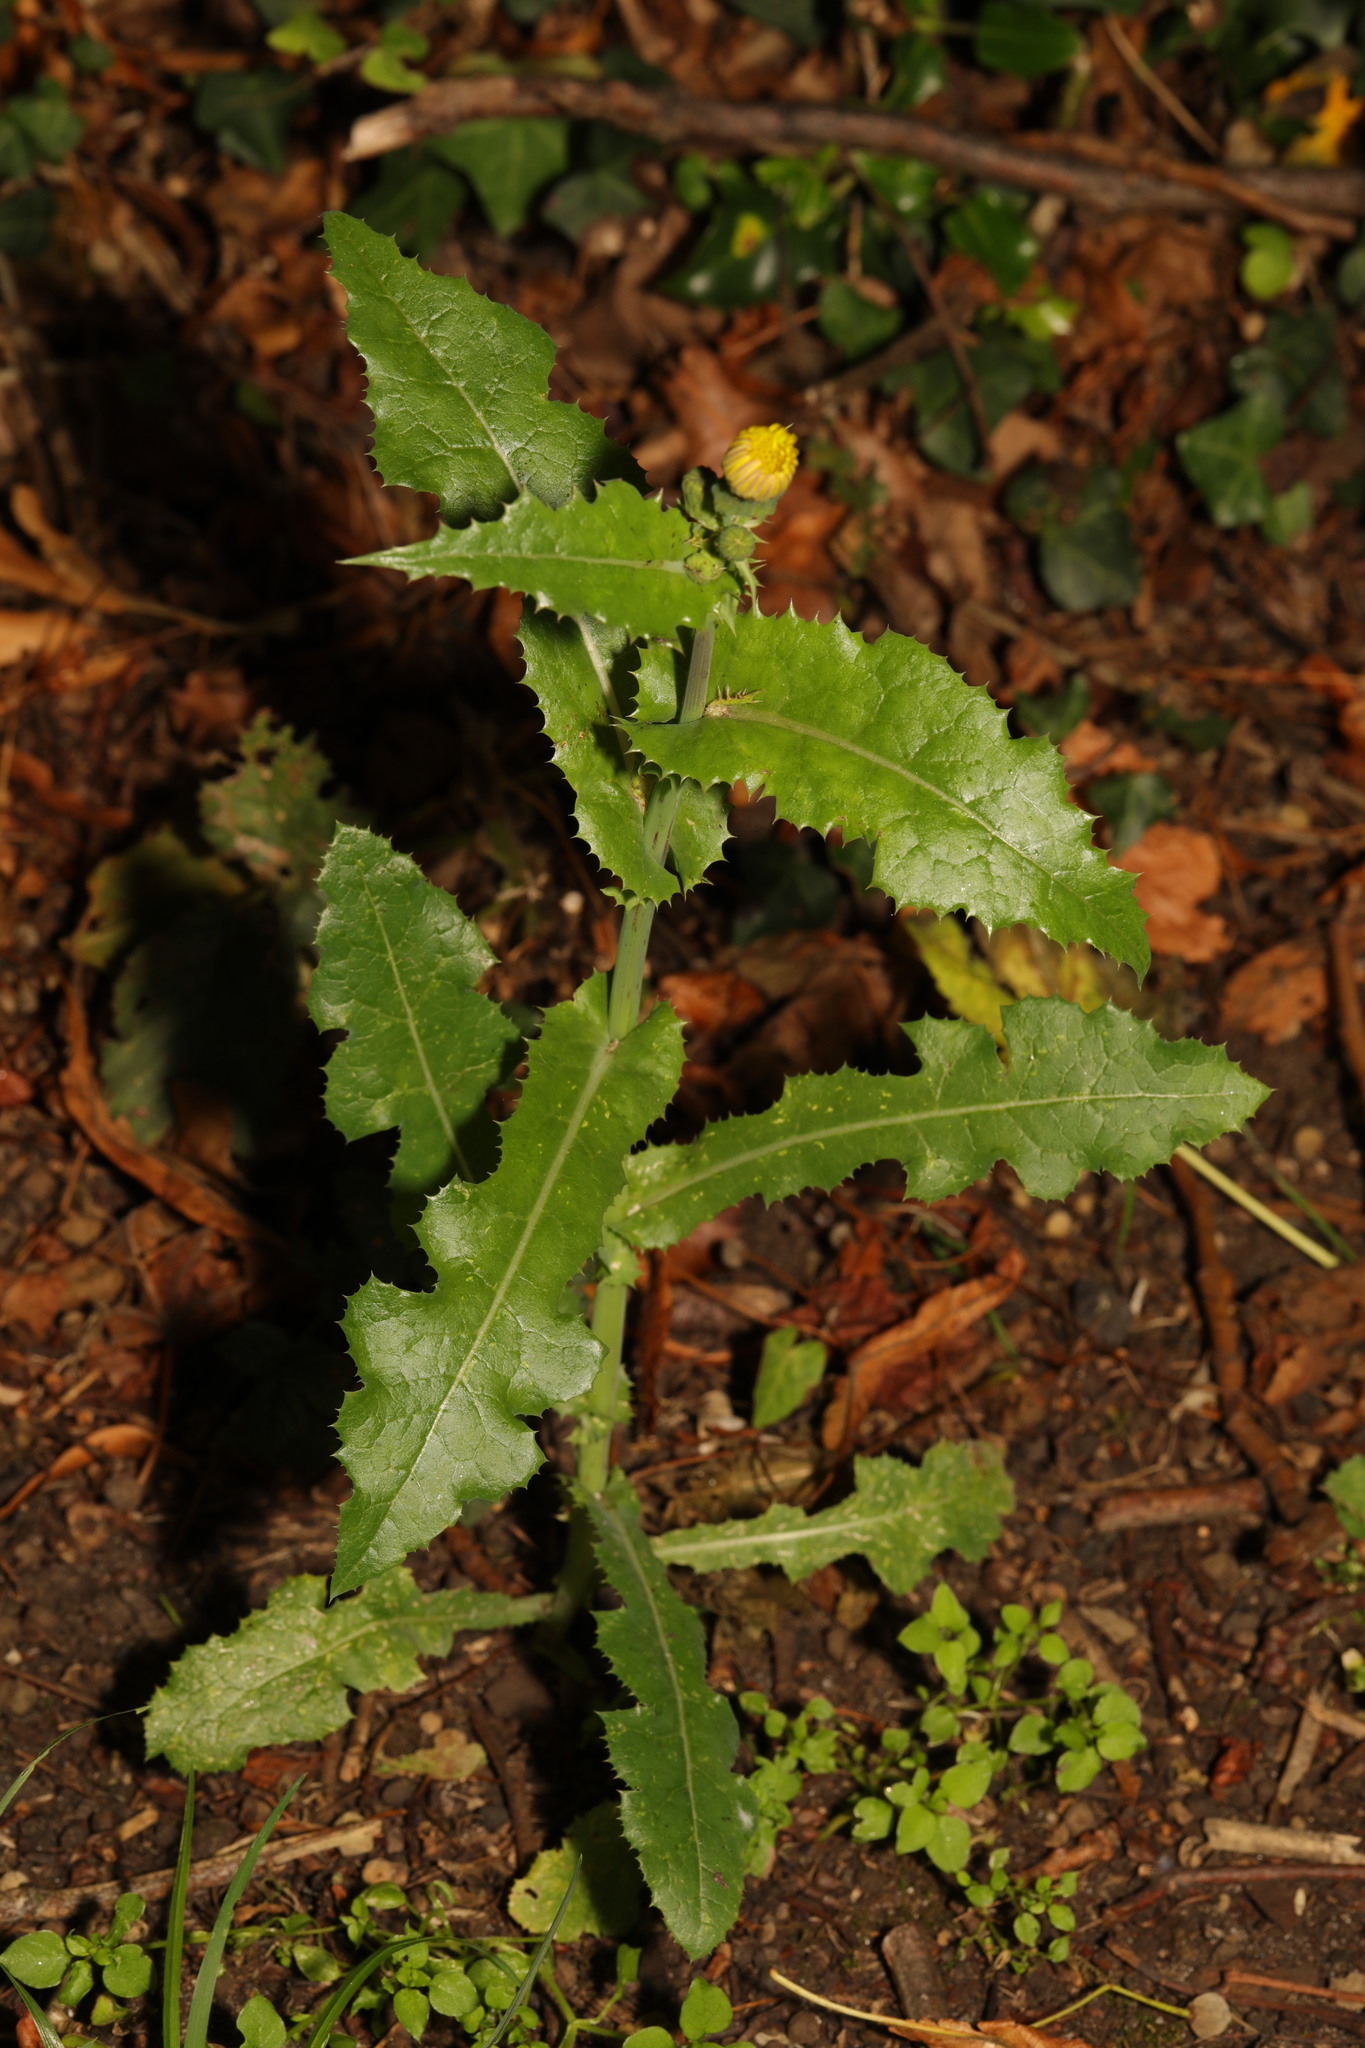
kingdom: Plantae
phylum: Tracheophyta
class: Magnoliopsida
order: Asterales
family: Asteraceae
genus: Sonchus
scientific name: Sonchus asper
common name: Prickly sow-thistle
